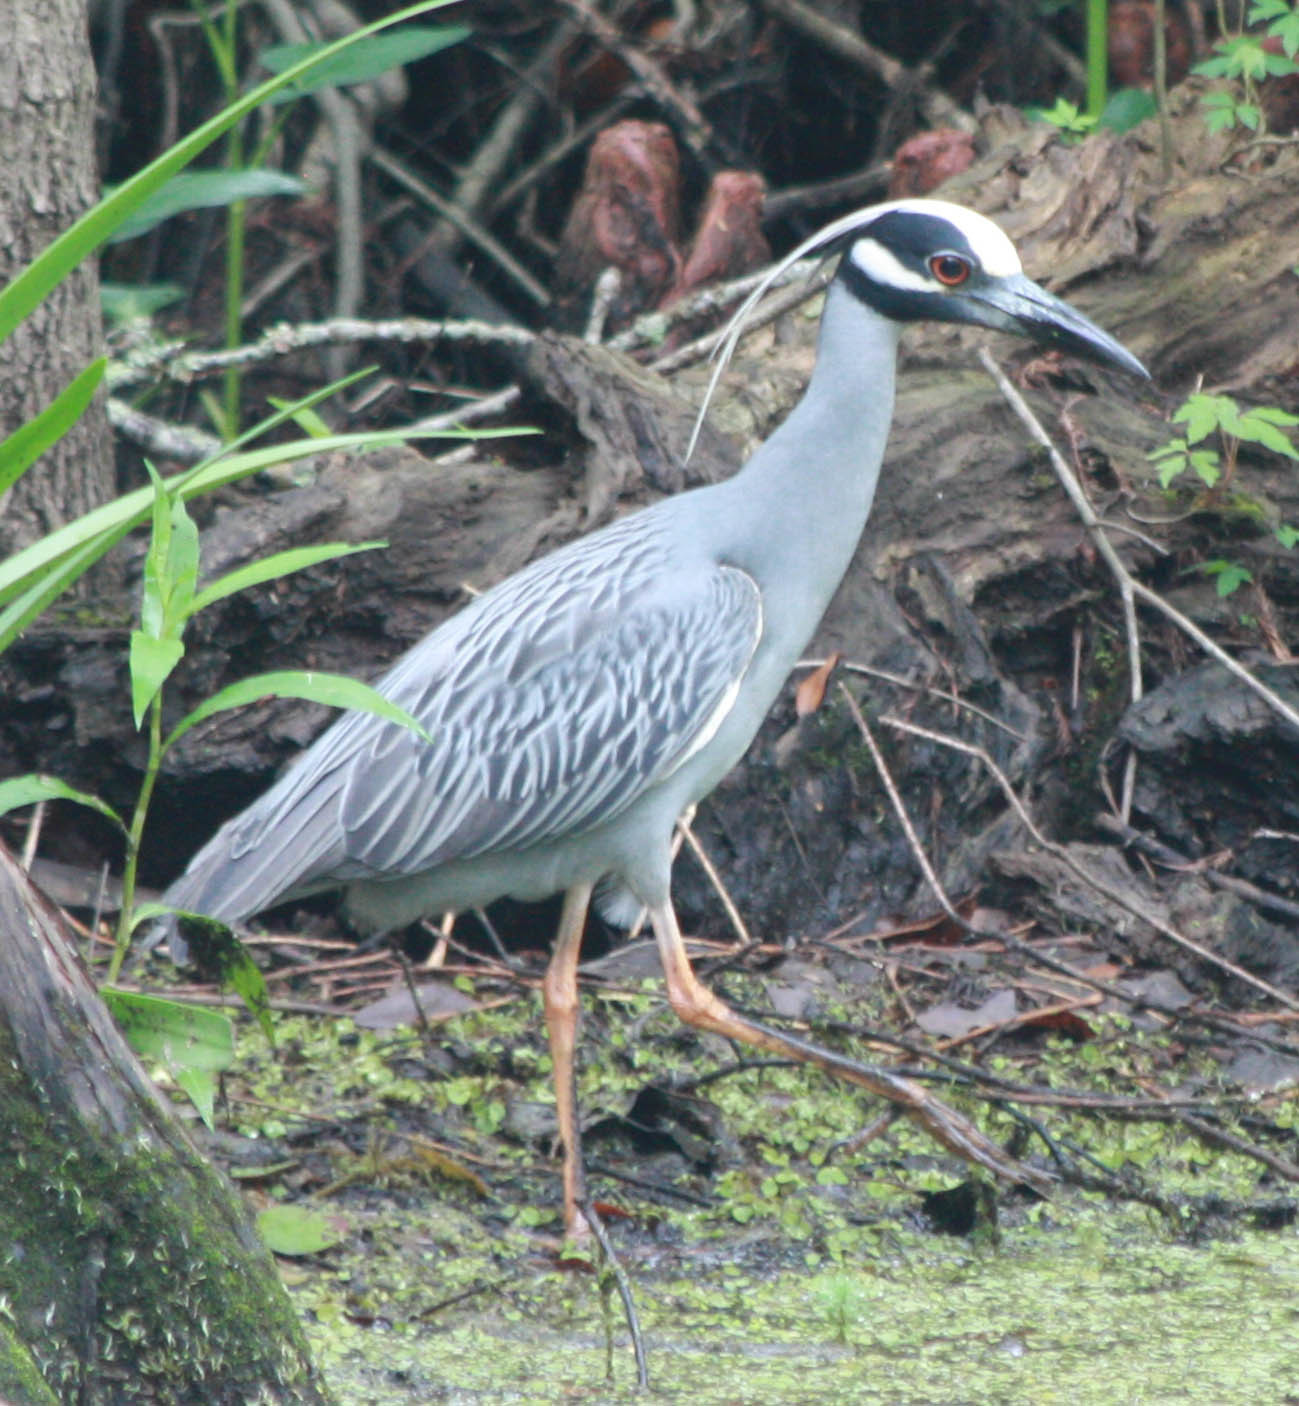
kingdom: Animalia
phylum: Chordata
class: Aves
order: Pelecaniformes
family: Ardeidae
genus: Nyctanassa
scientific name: Nyctanassa violacea
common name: Yellow-crowned night heron
